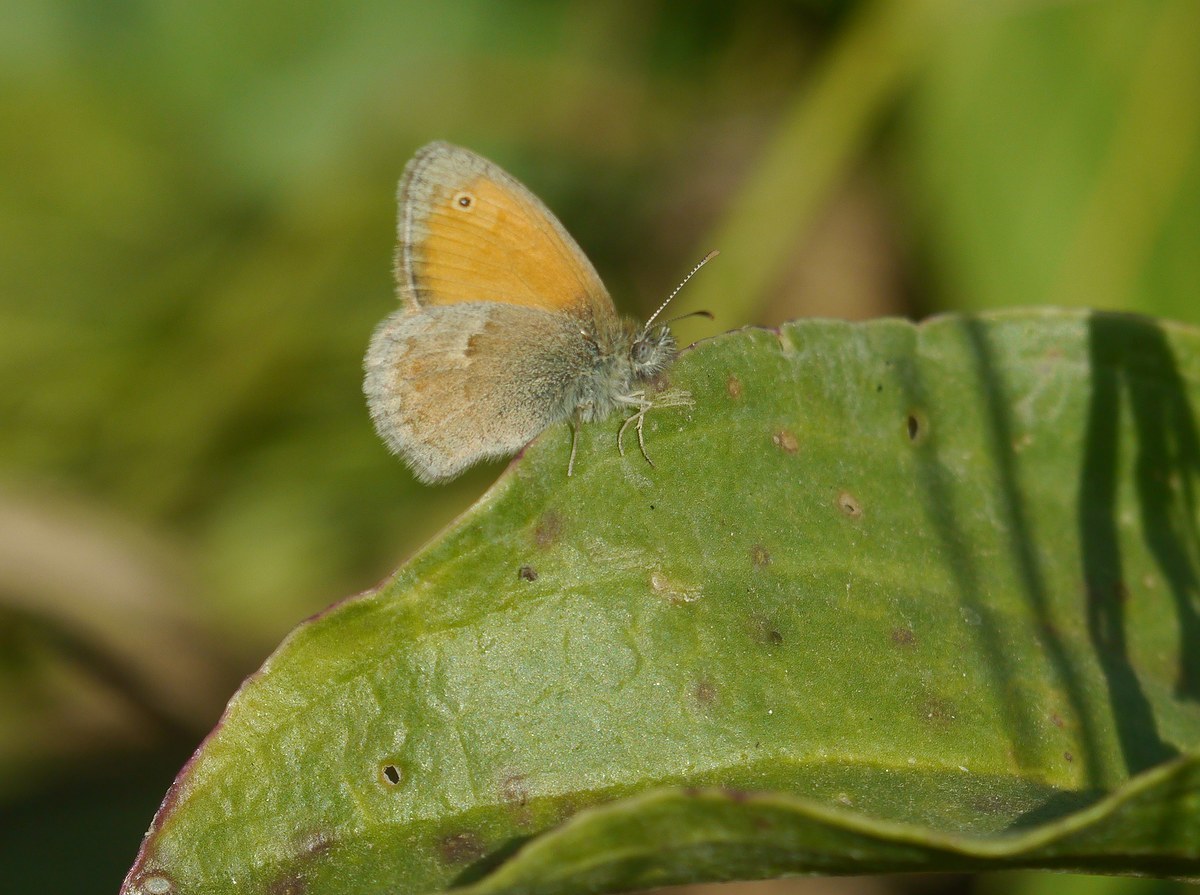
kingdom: Animalia
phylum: Arthropoda
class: Insecta
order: Lepidoptera
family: Nymphalidae
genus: Coenonympha
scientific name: Coenonympha pamphilus
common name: Small heath
